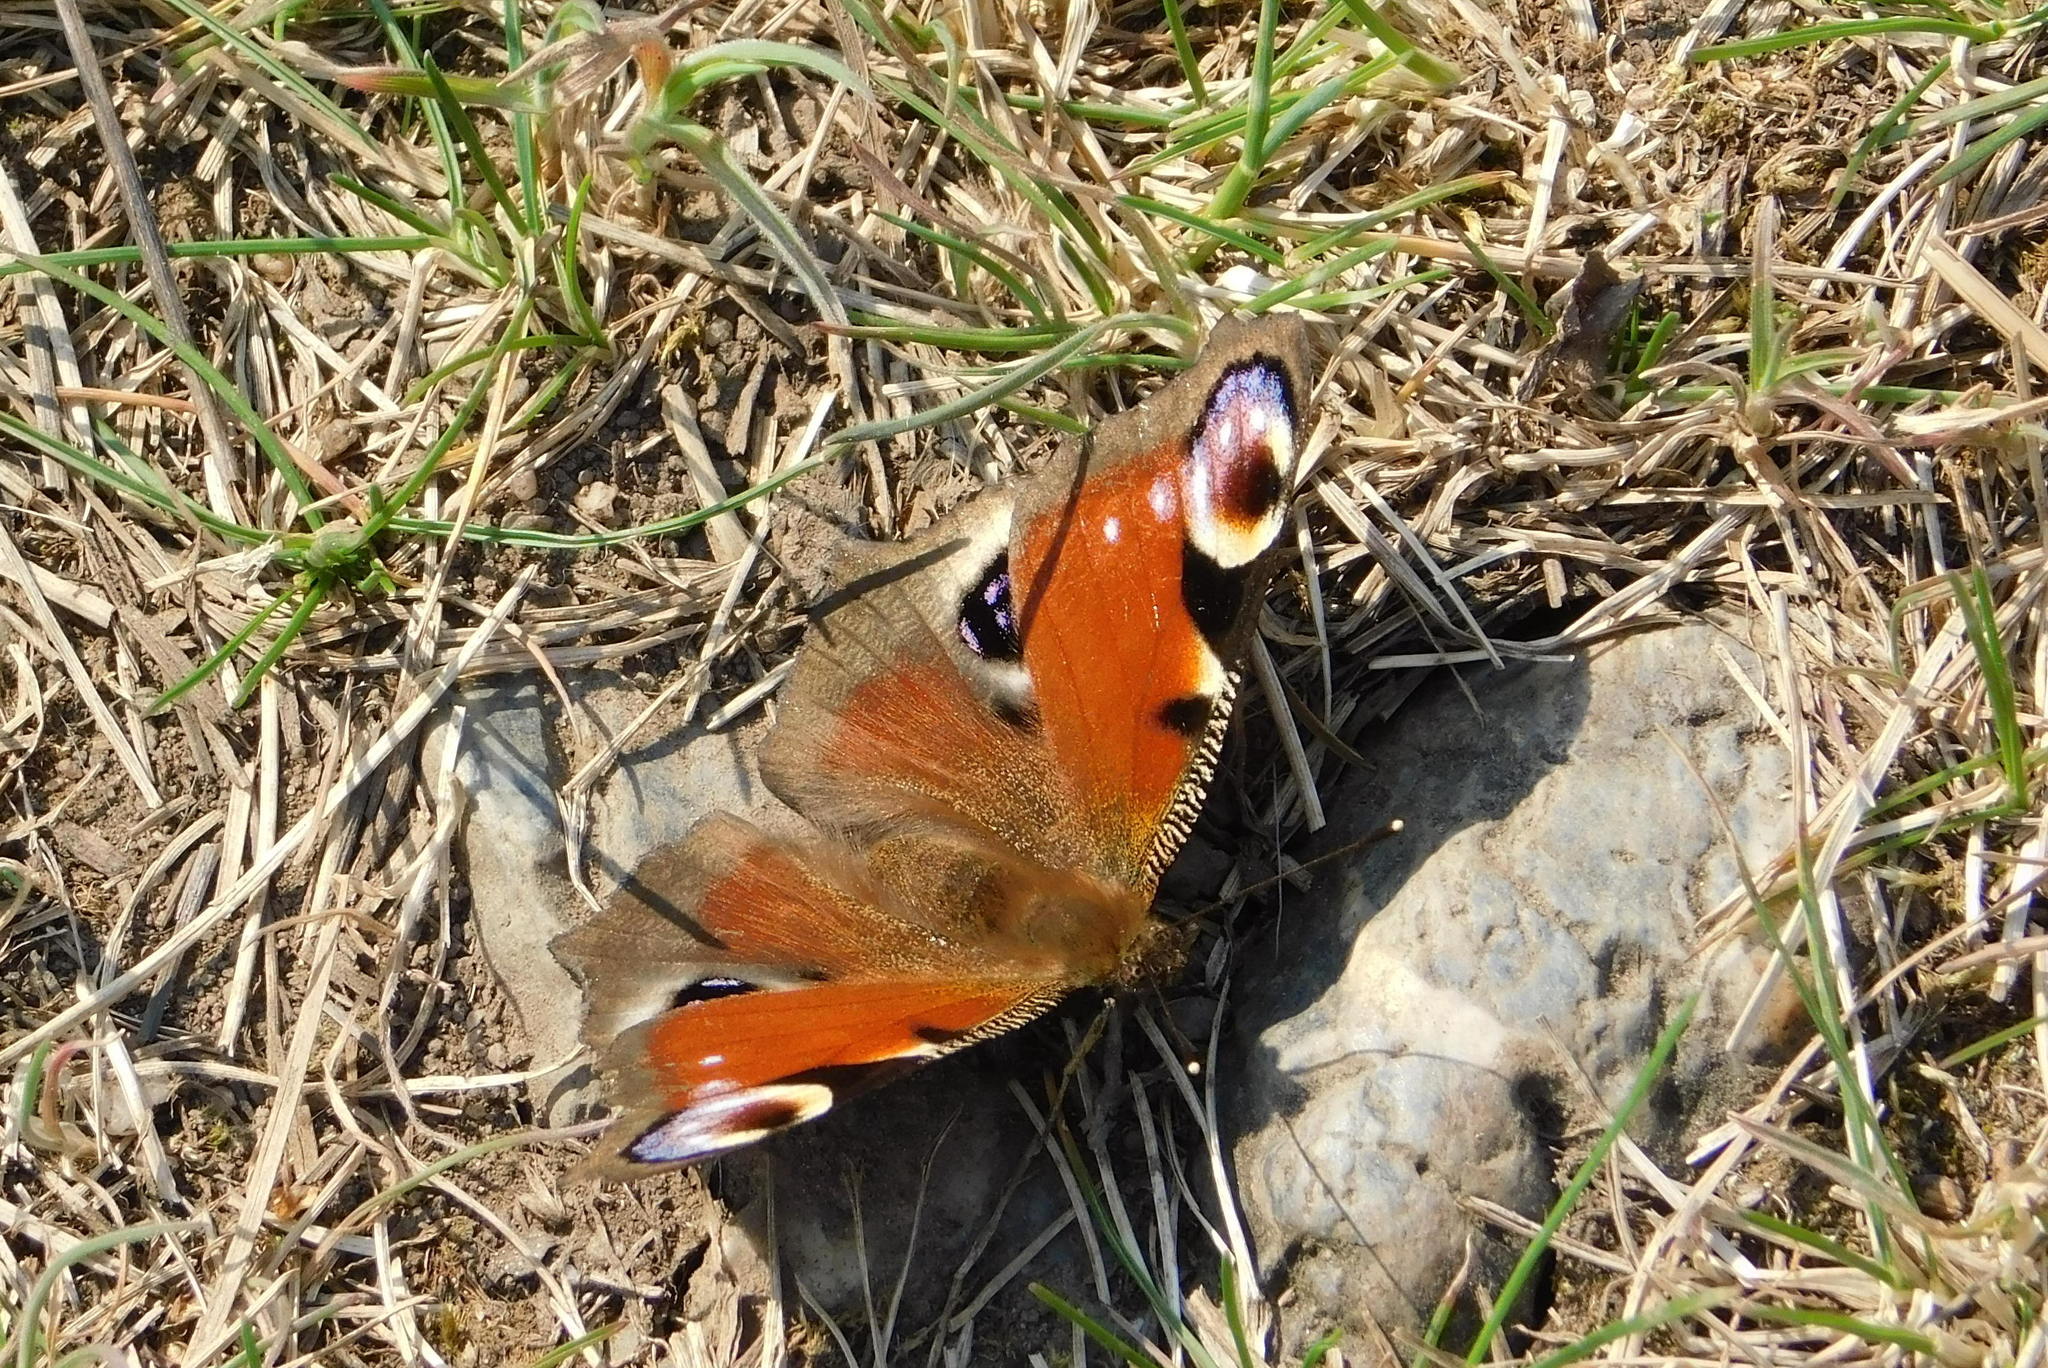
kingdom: Animalia
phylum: Arthropoda
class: Insecta
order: Lepidoptera
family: Nymphalidae
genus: Aglais
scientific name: Aglais io
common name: Peacock
